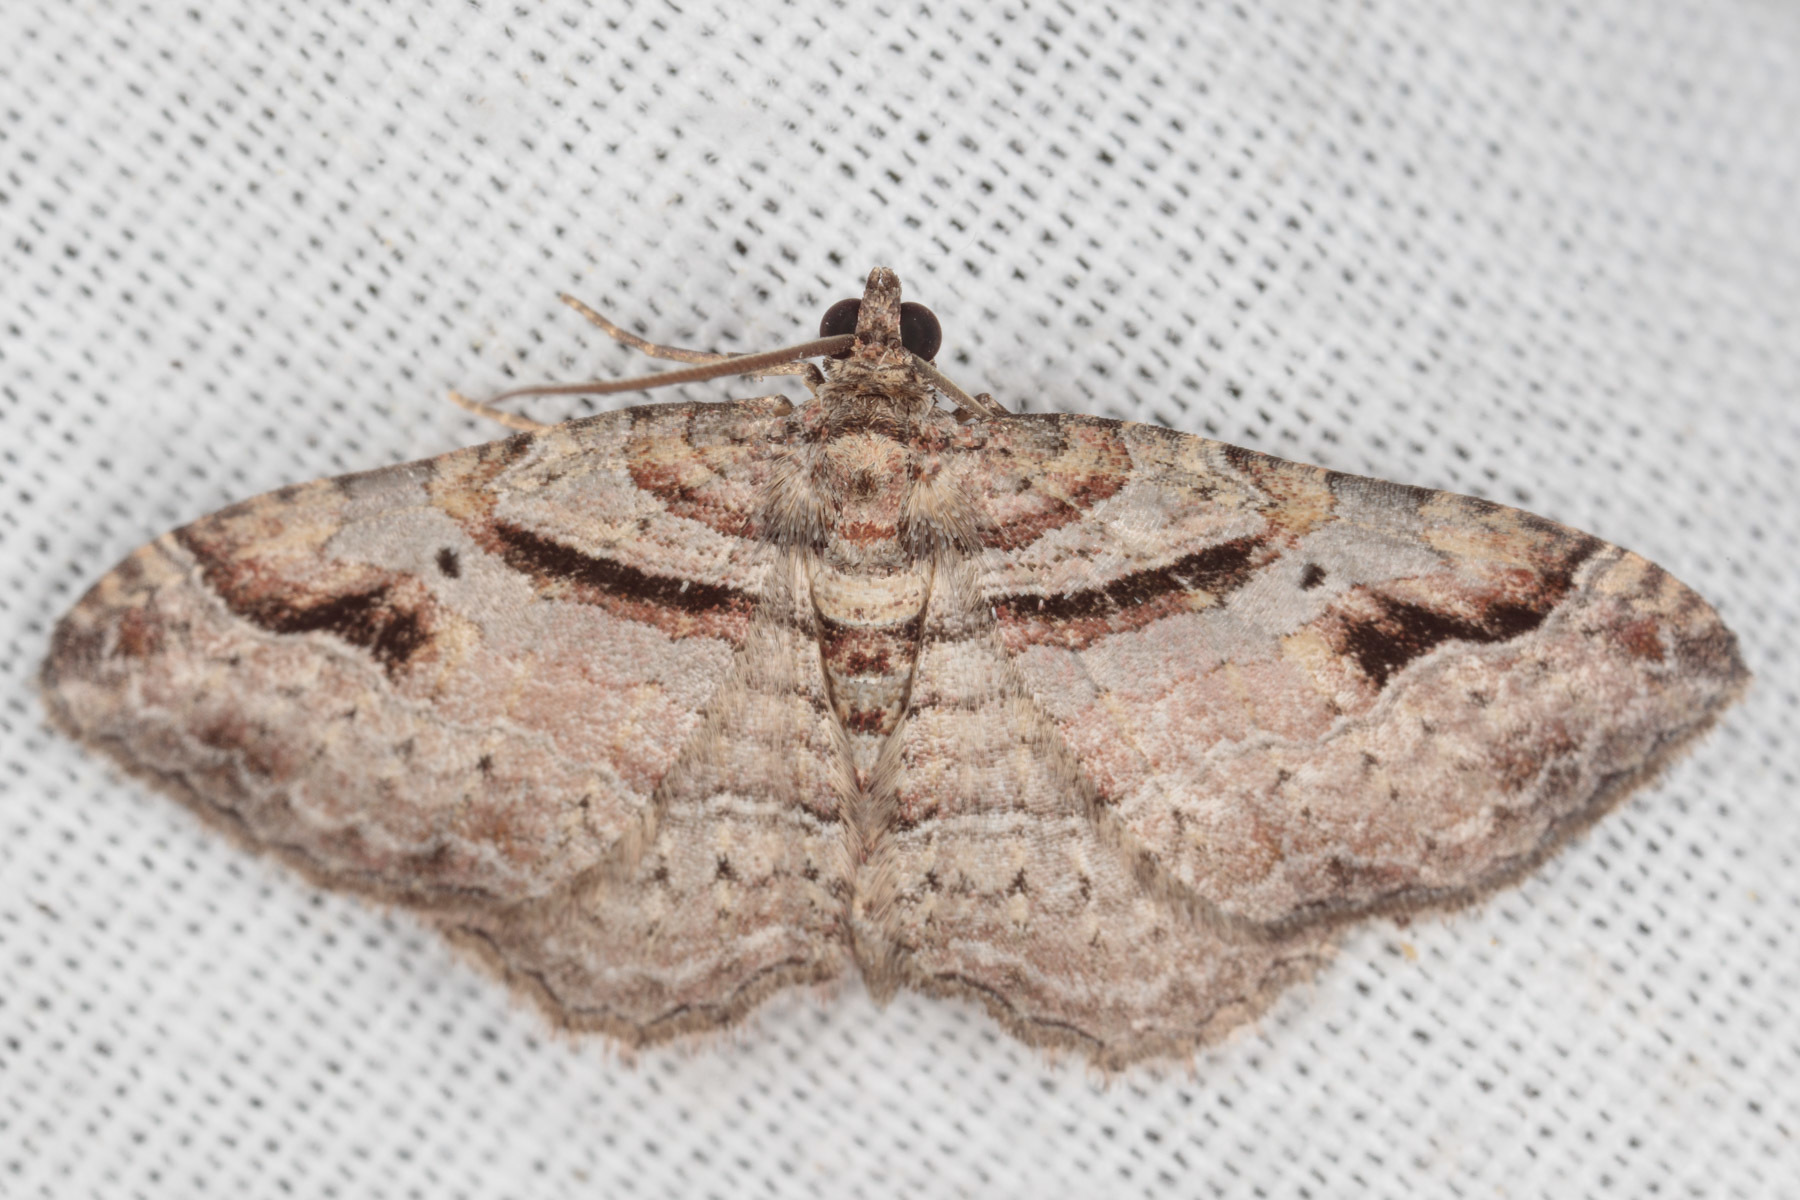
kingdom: Animalia
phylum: Arthropoda
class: Insecta
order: Lepidoptera
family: Geometridae
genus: Costaconvexa
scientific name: Costaconvexa centrostrigaria
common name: Bent-line carpet
